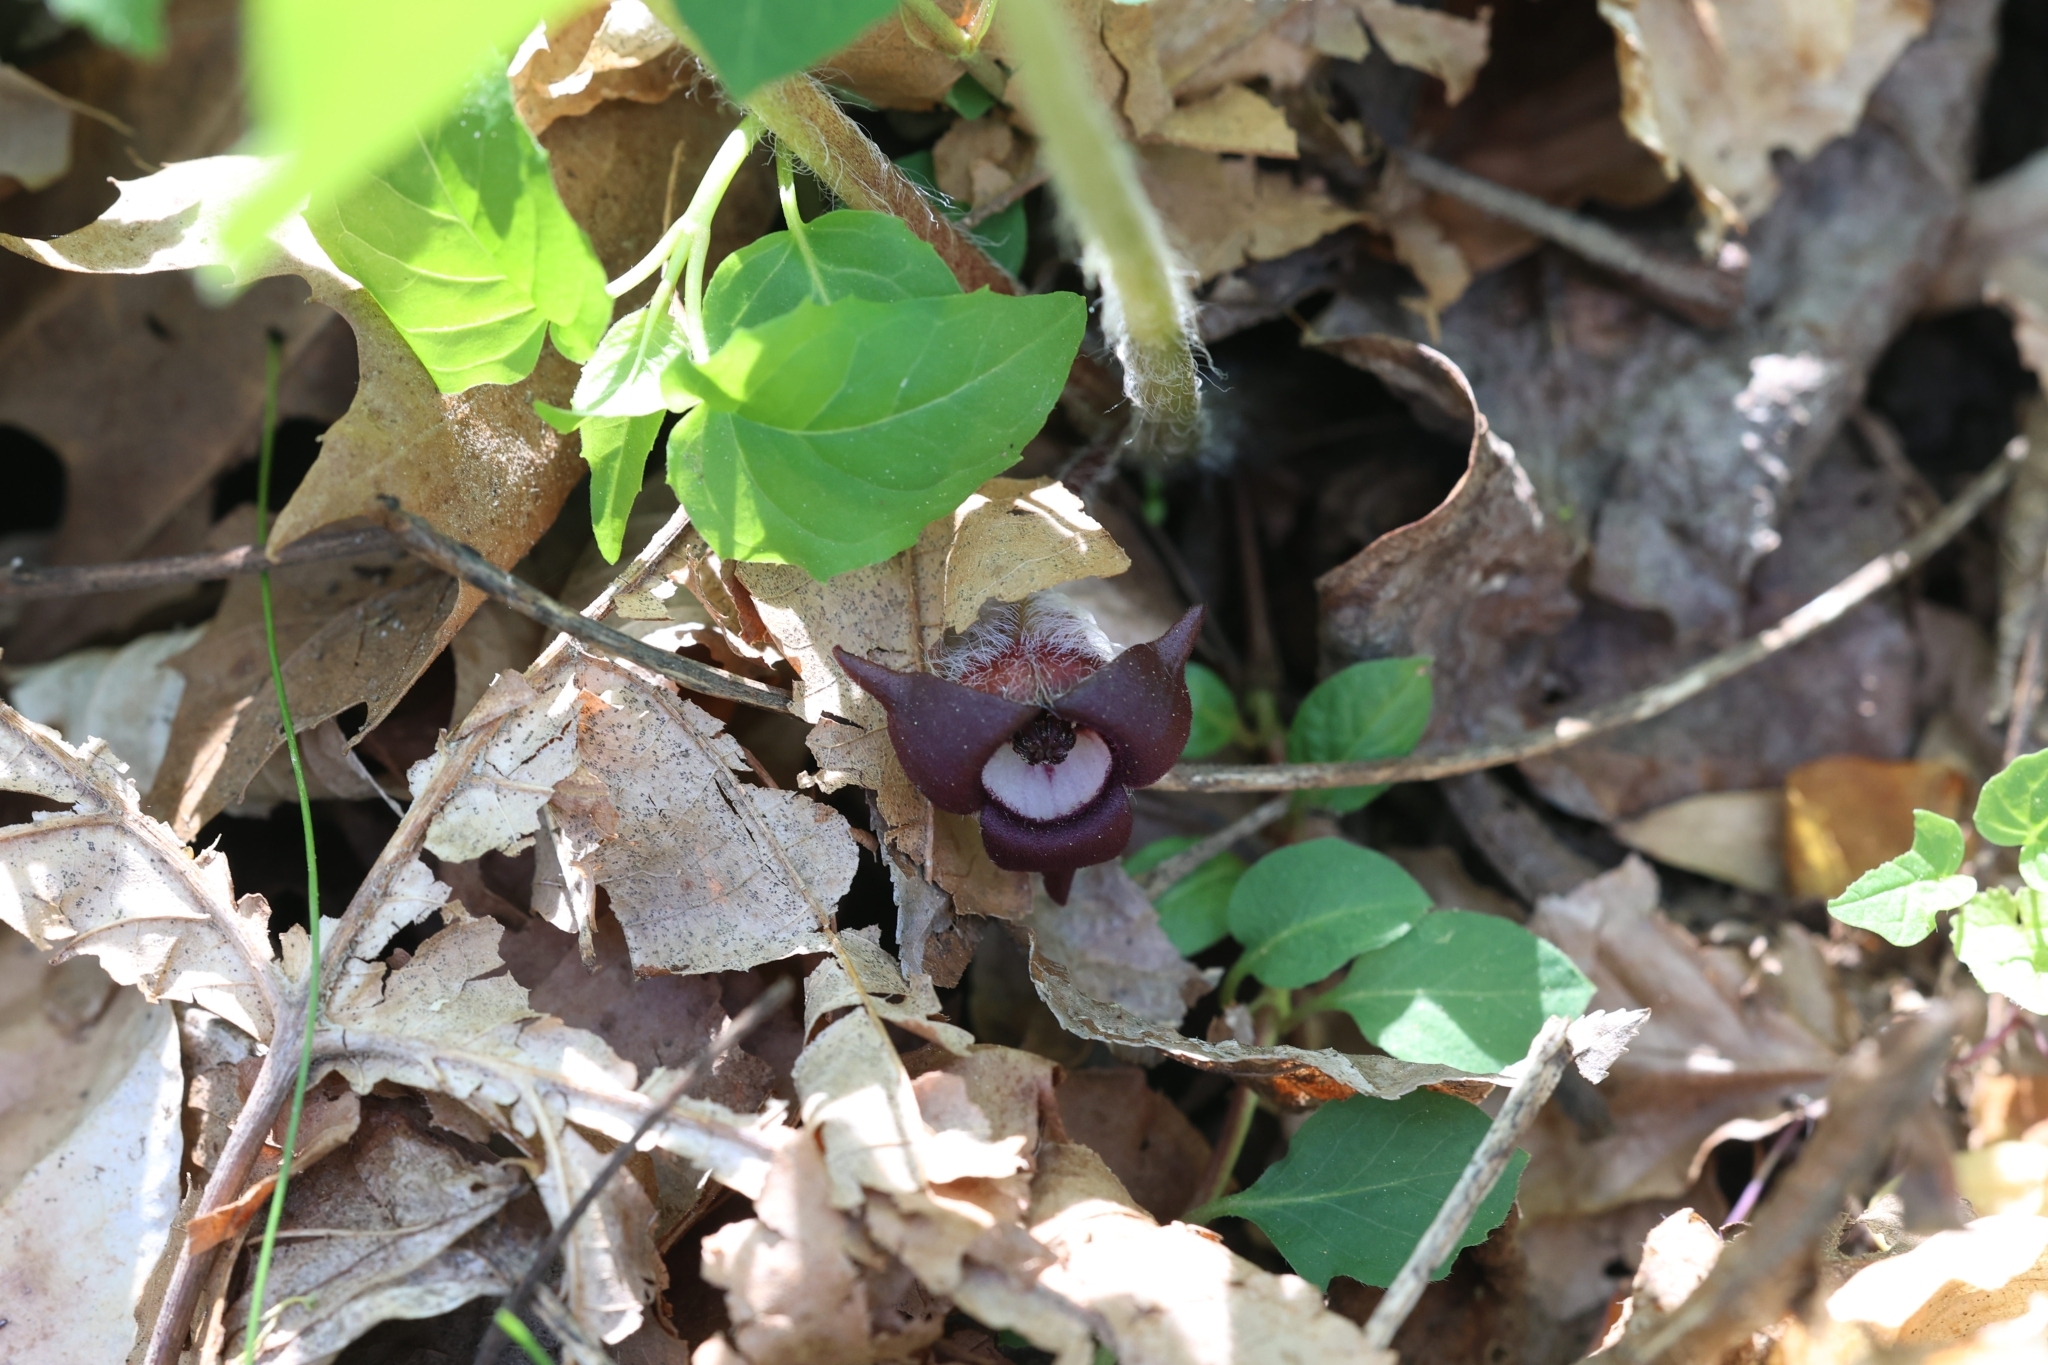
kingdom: Plantae
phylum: Tracheophyta
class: Magnoliopsida
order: Piperales
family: Aristolochiaceae
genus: Asarum
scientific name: Asarum canadense
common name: Wild ginger
